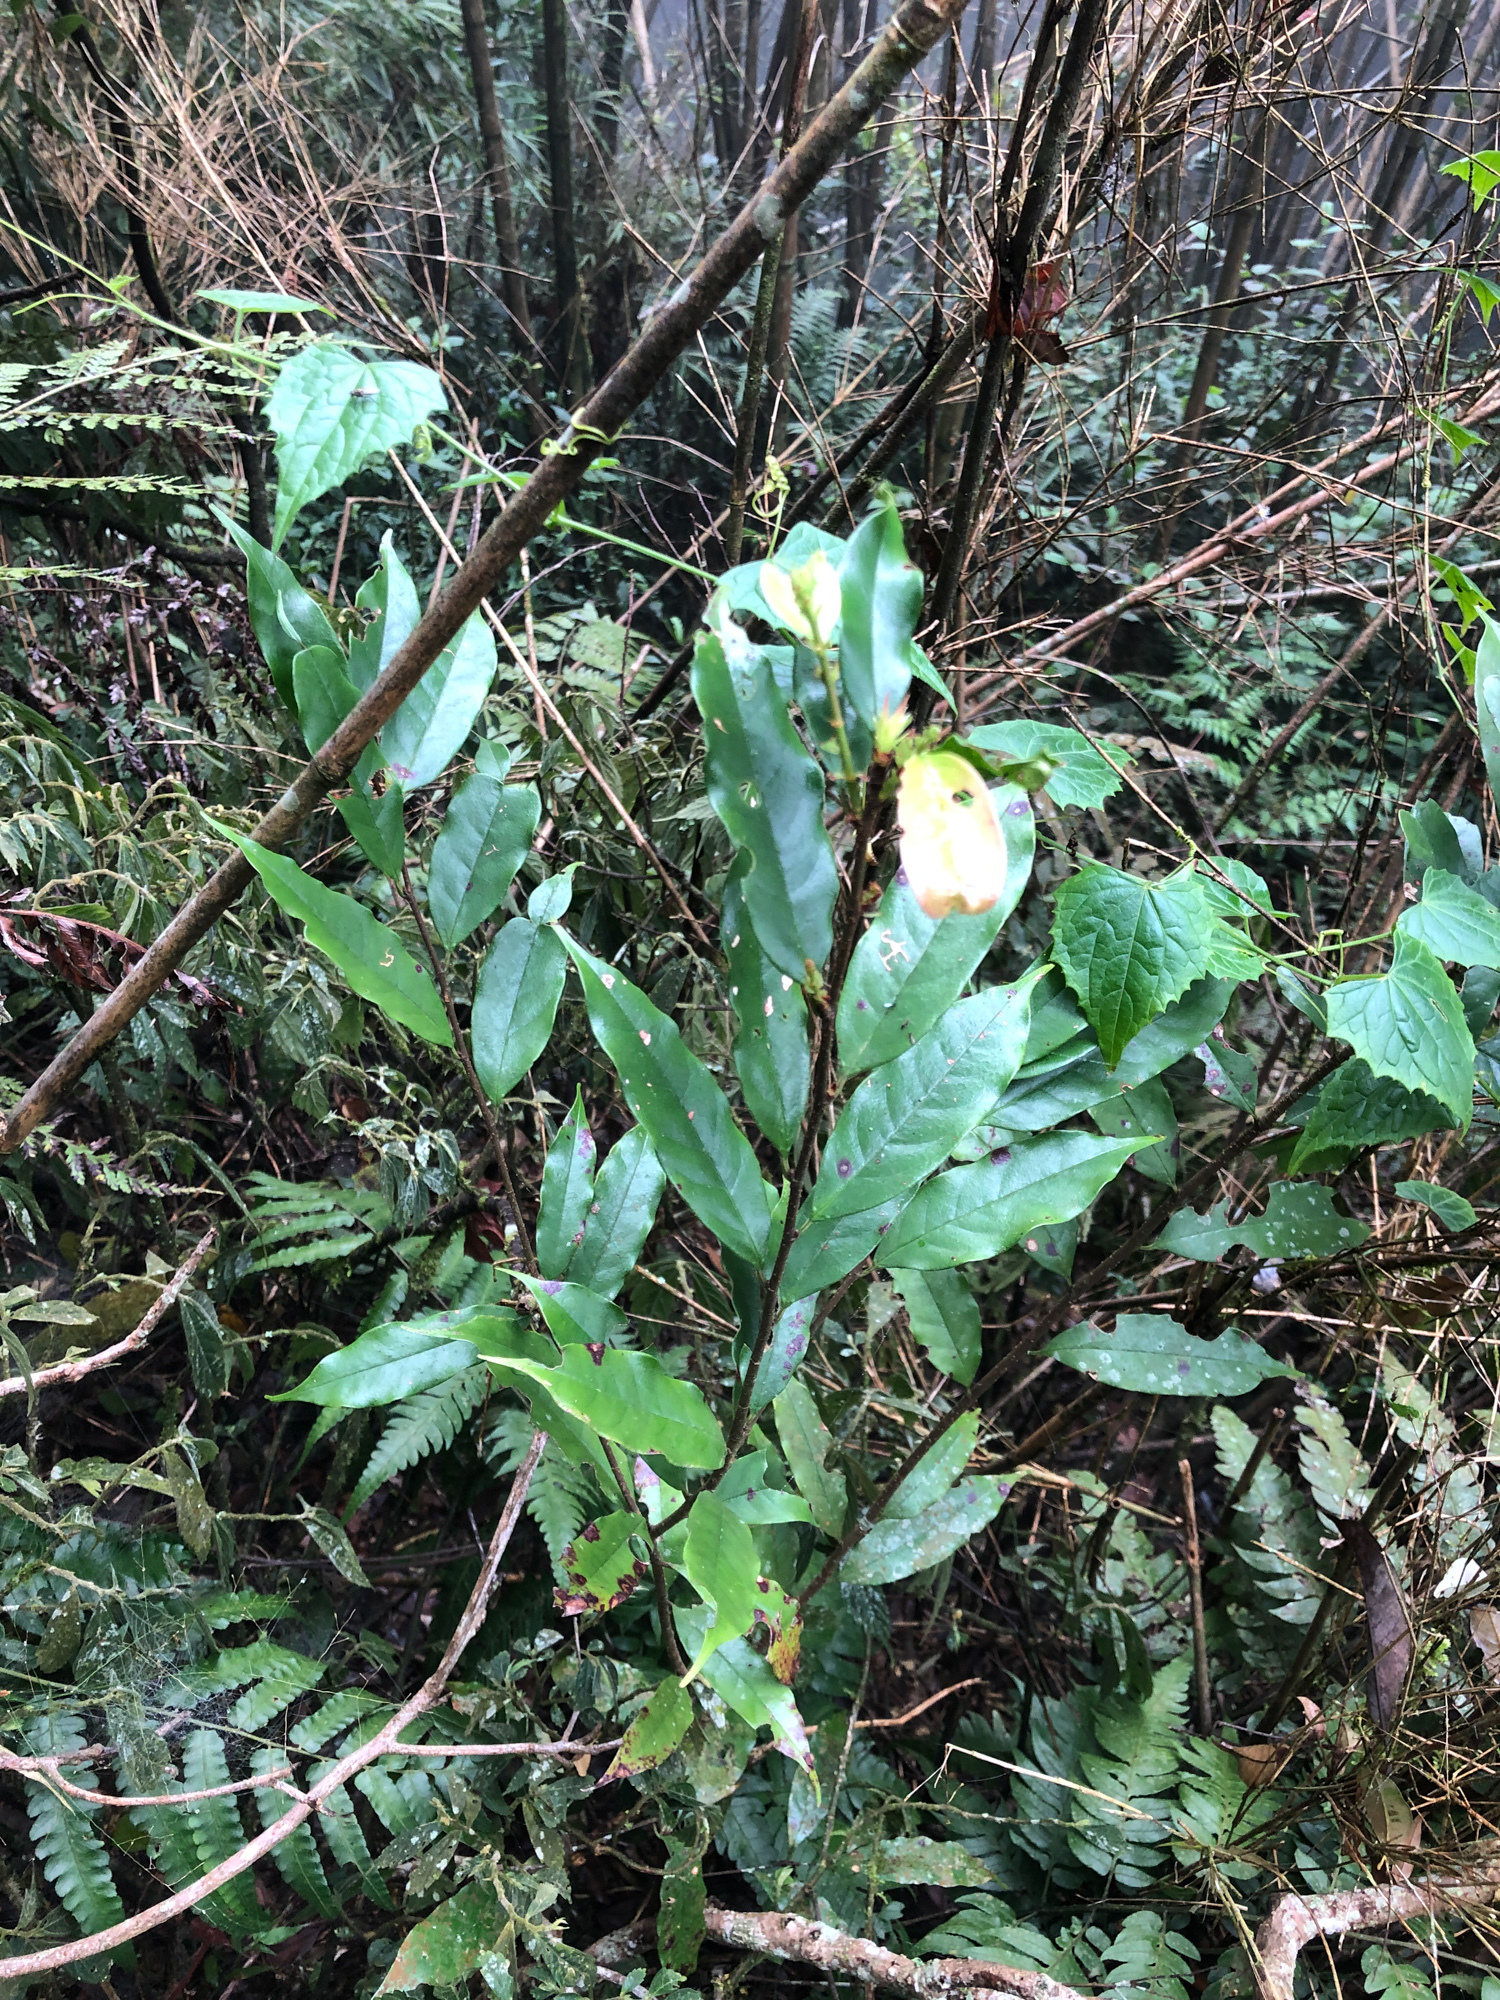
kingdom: Plantae
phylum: Tracheophyta
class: Magnoliopsida
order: Rosales
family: Rosaceae
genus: Prunus
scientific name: Prunus phaeosticta
